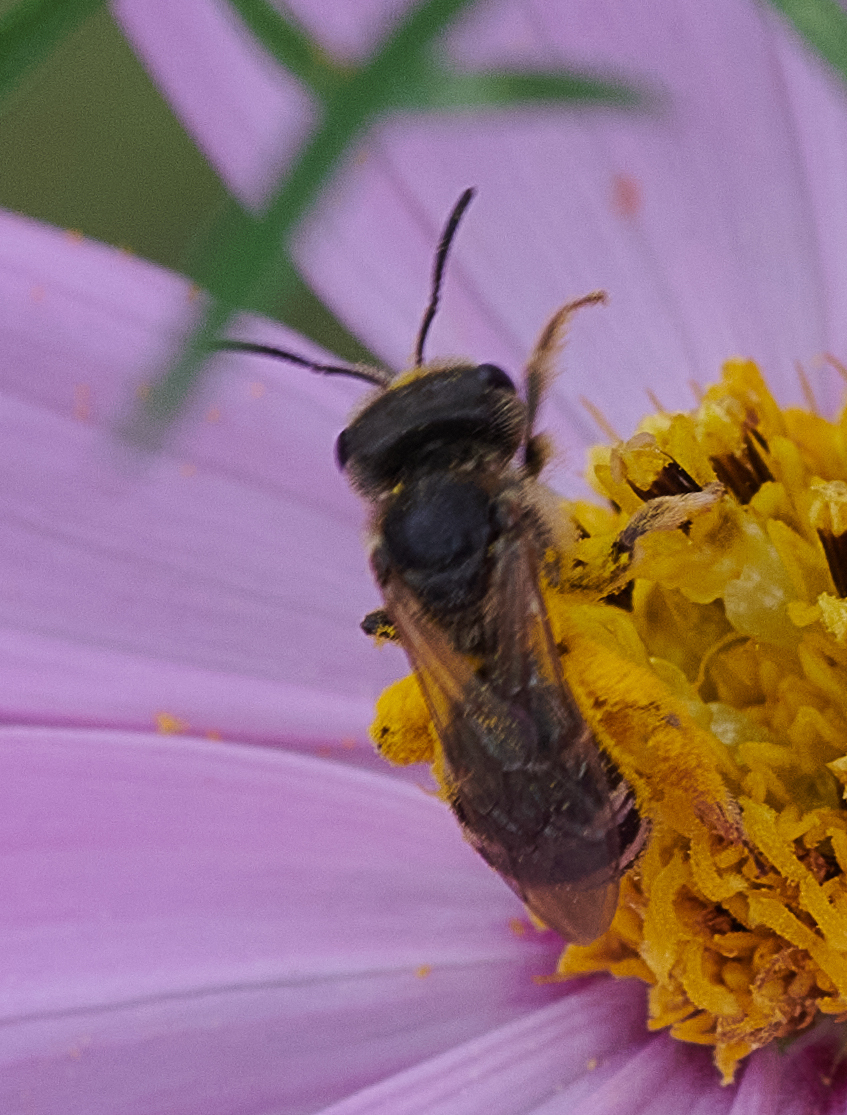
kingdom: Animalia
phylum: Arthropoda
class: Insecta
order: Hymenoptera
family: Halictidae
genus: Halictus
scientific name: Halictus ligatus
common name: Ligated furrow bee
